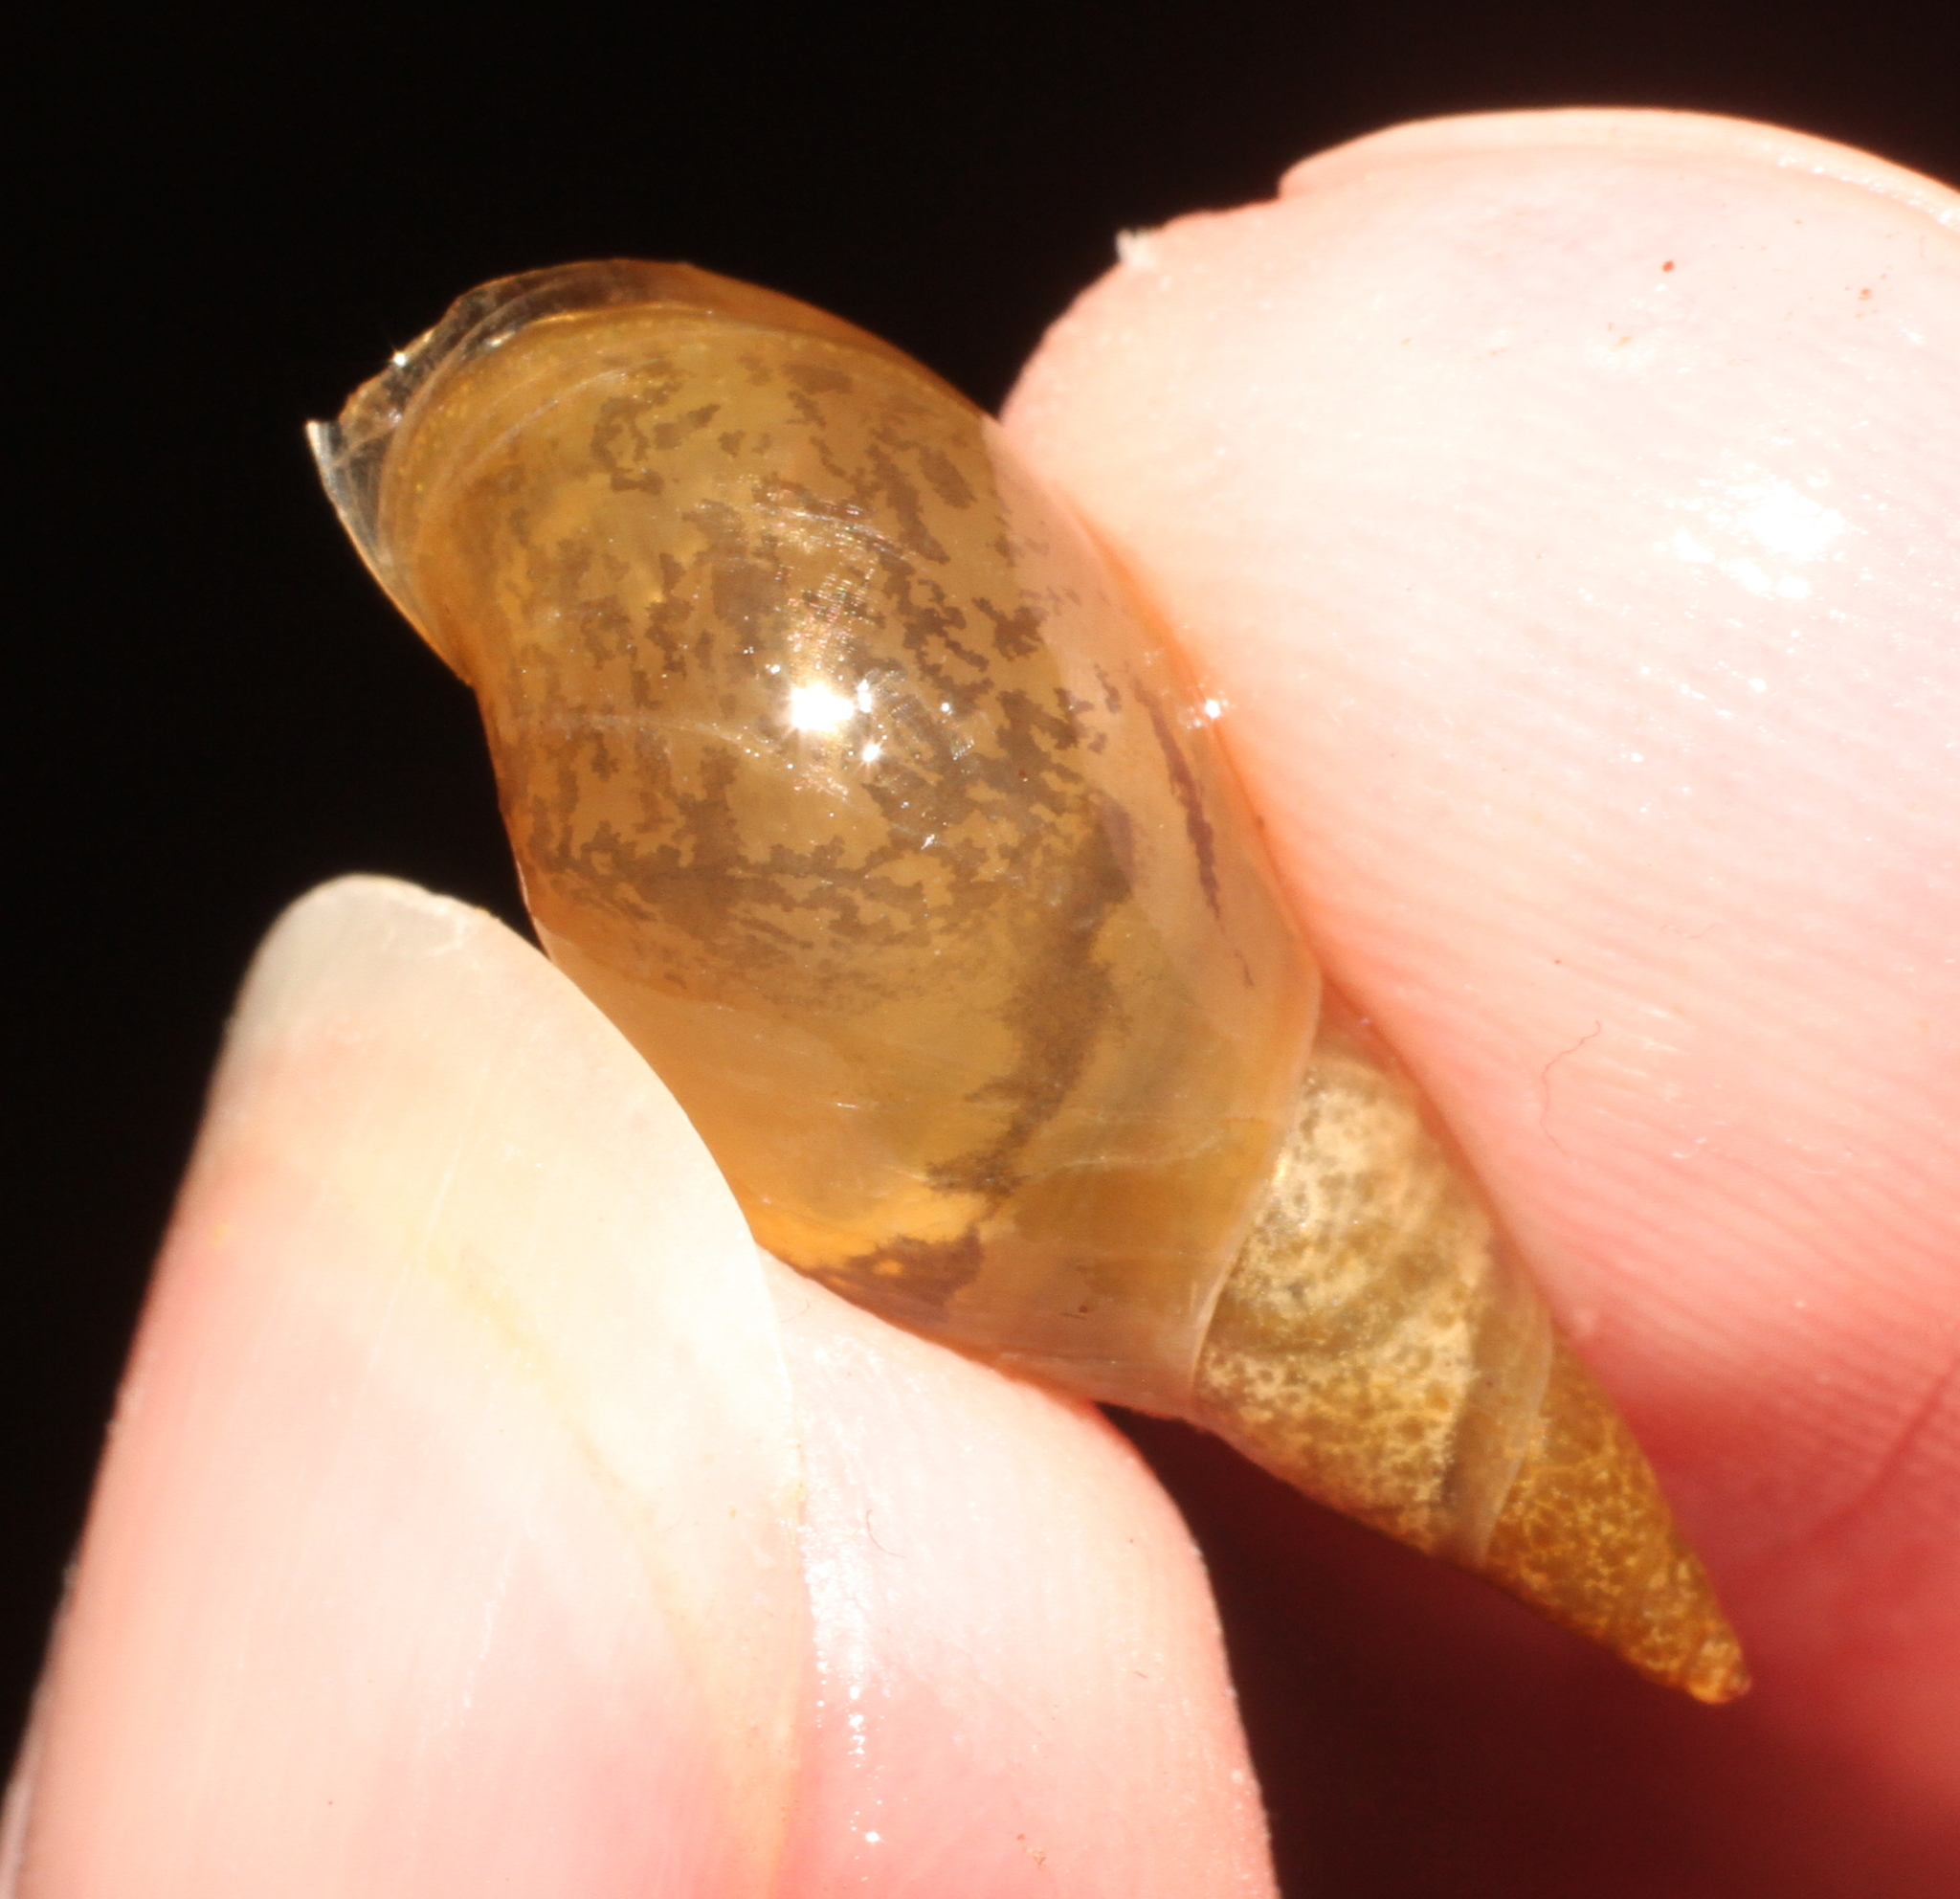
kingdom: Animalia
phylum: Mollusca
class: Gastropoda
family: Lymnaeidae
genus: Lymnaea
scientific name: Lymnaea stagnalis
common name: Great pond snail
